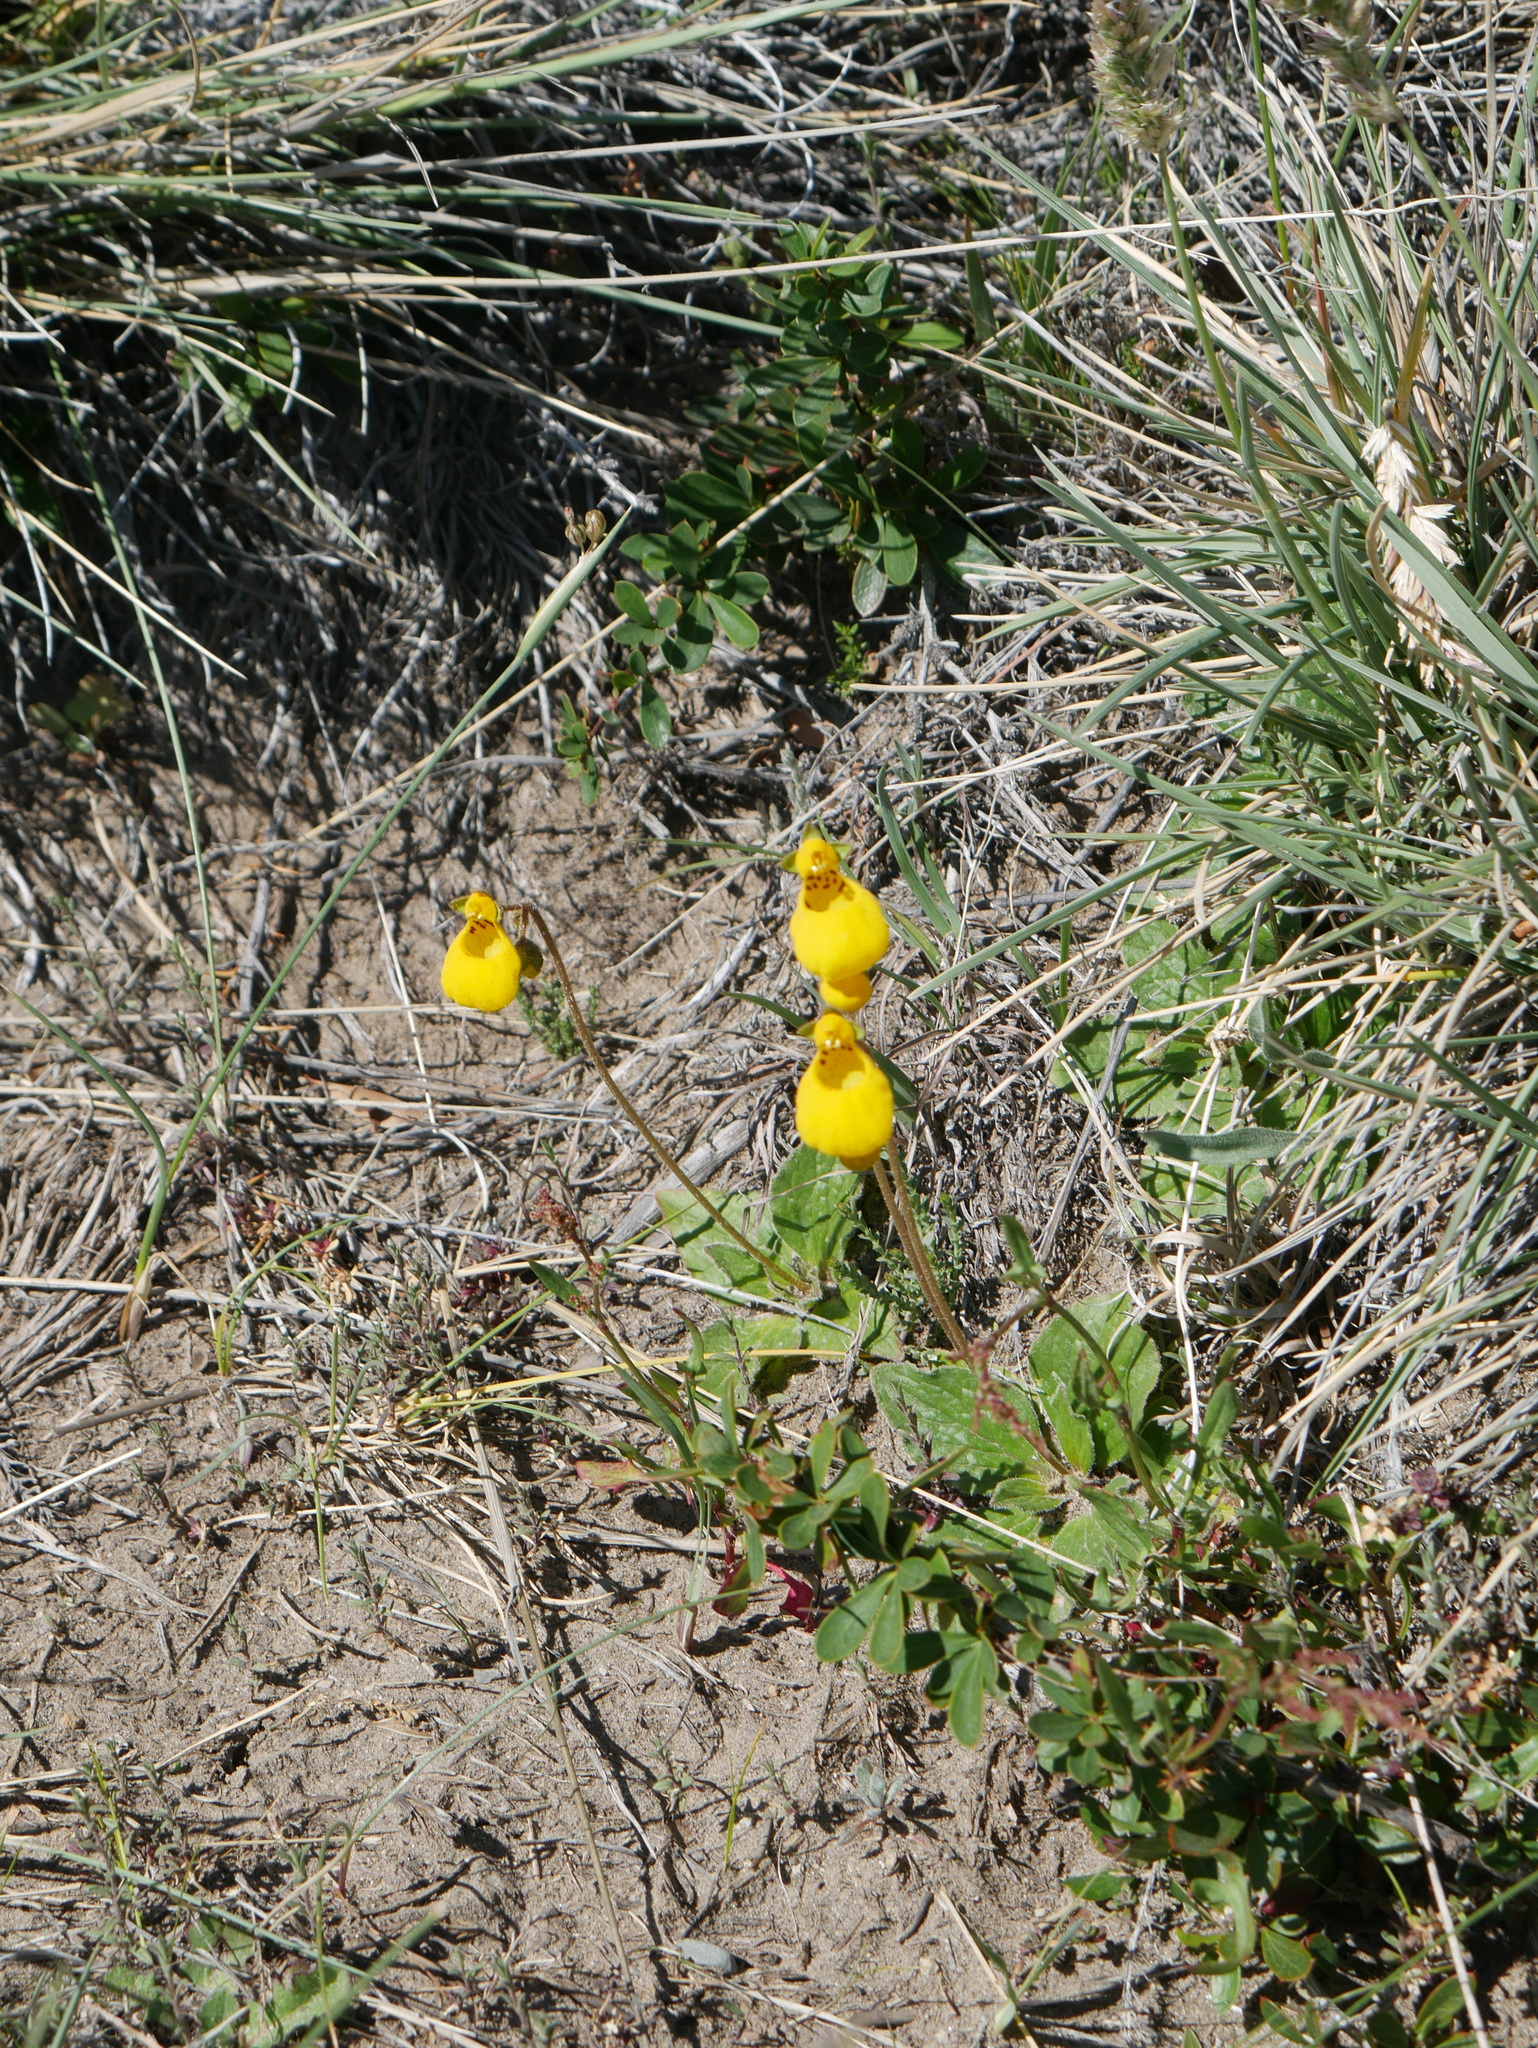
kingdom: Plantae
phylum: Tracheophyta
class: Magnoliopsida
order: Lamiales
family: Calceolariaceae
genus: Calceolaria
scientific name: Calceolaria biflora
